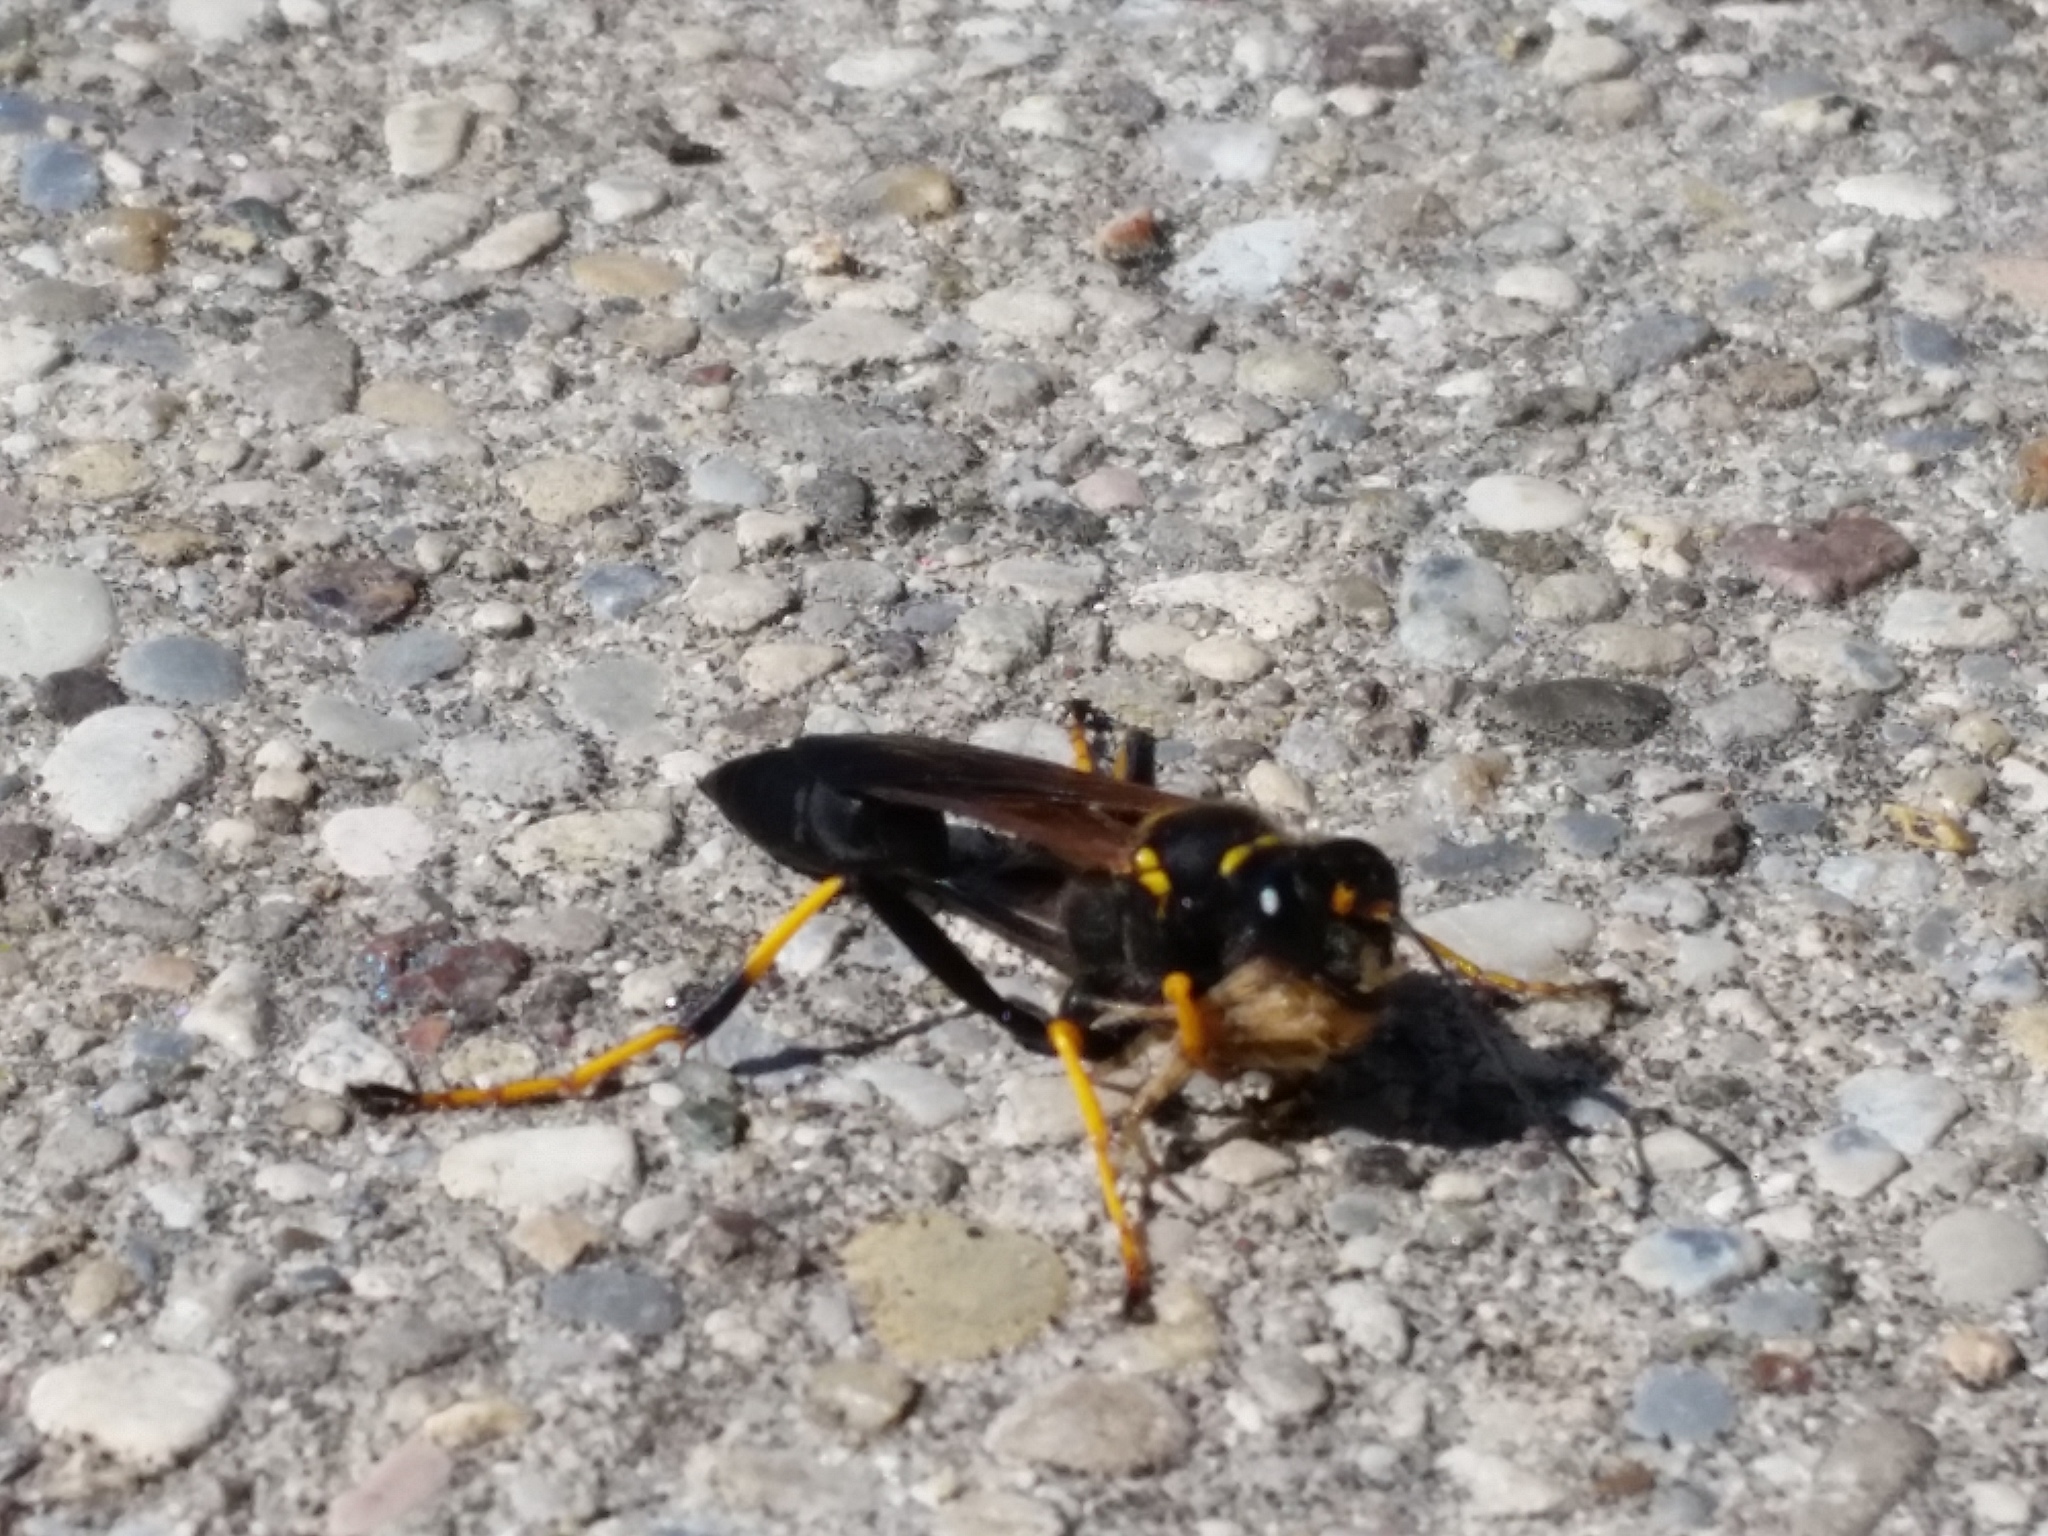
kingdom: Animalia
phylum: Arthropoda
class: Insecta
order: Hymenoptera
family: Sphecidae
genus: Sceliphron
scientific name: Sceliphron caementarium
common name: Mud dauber
